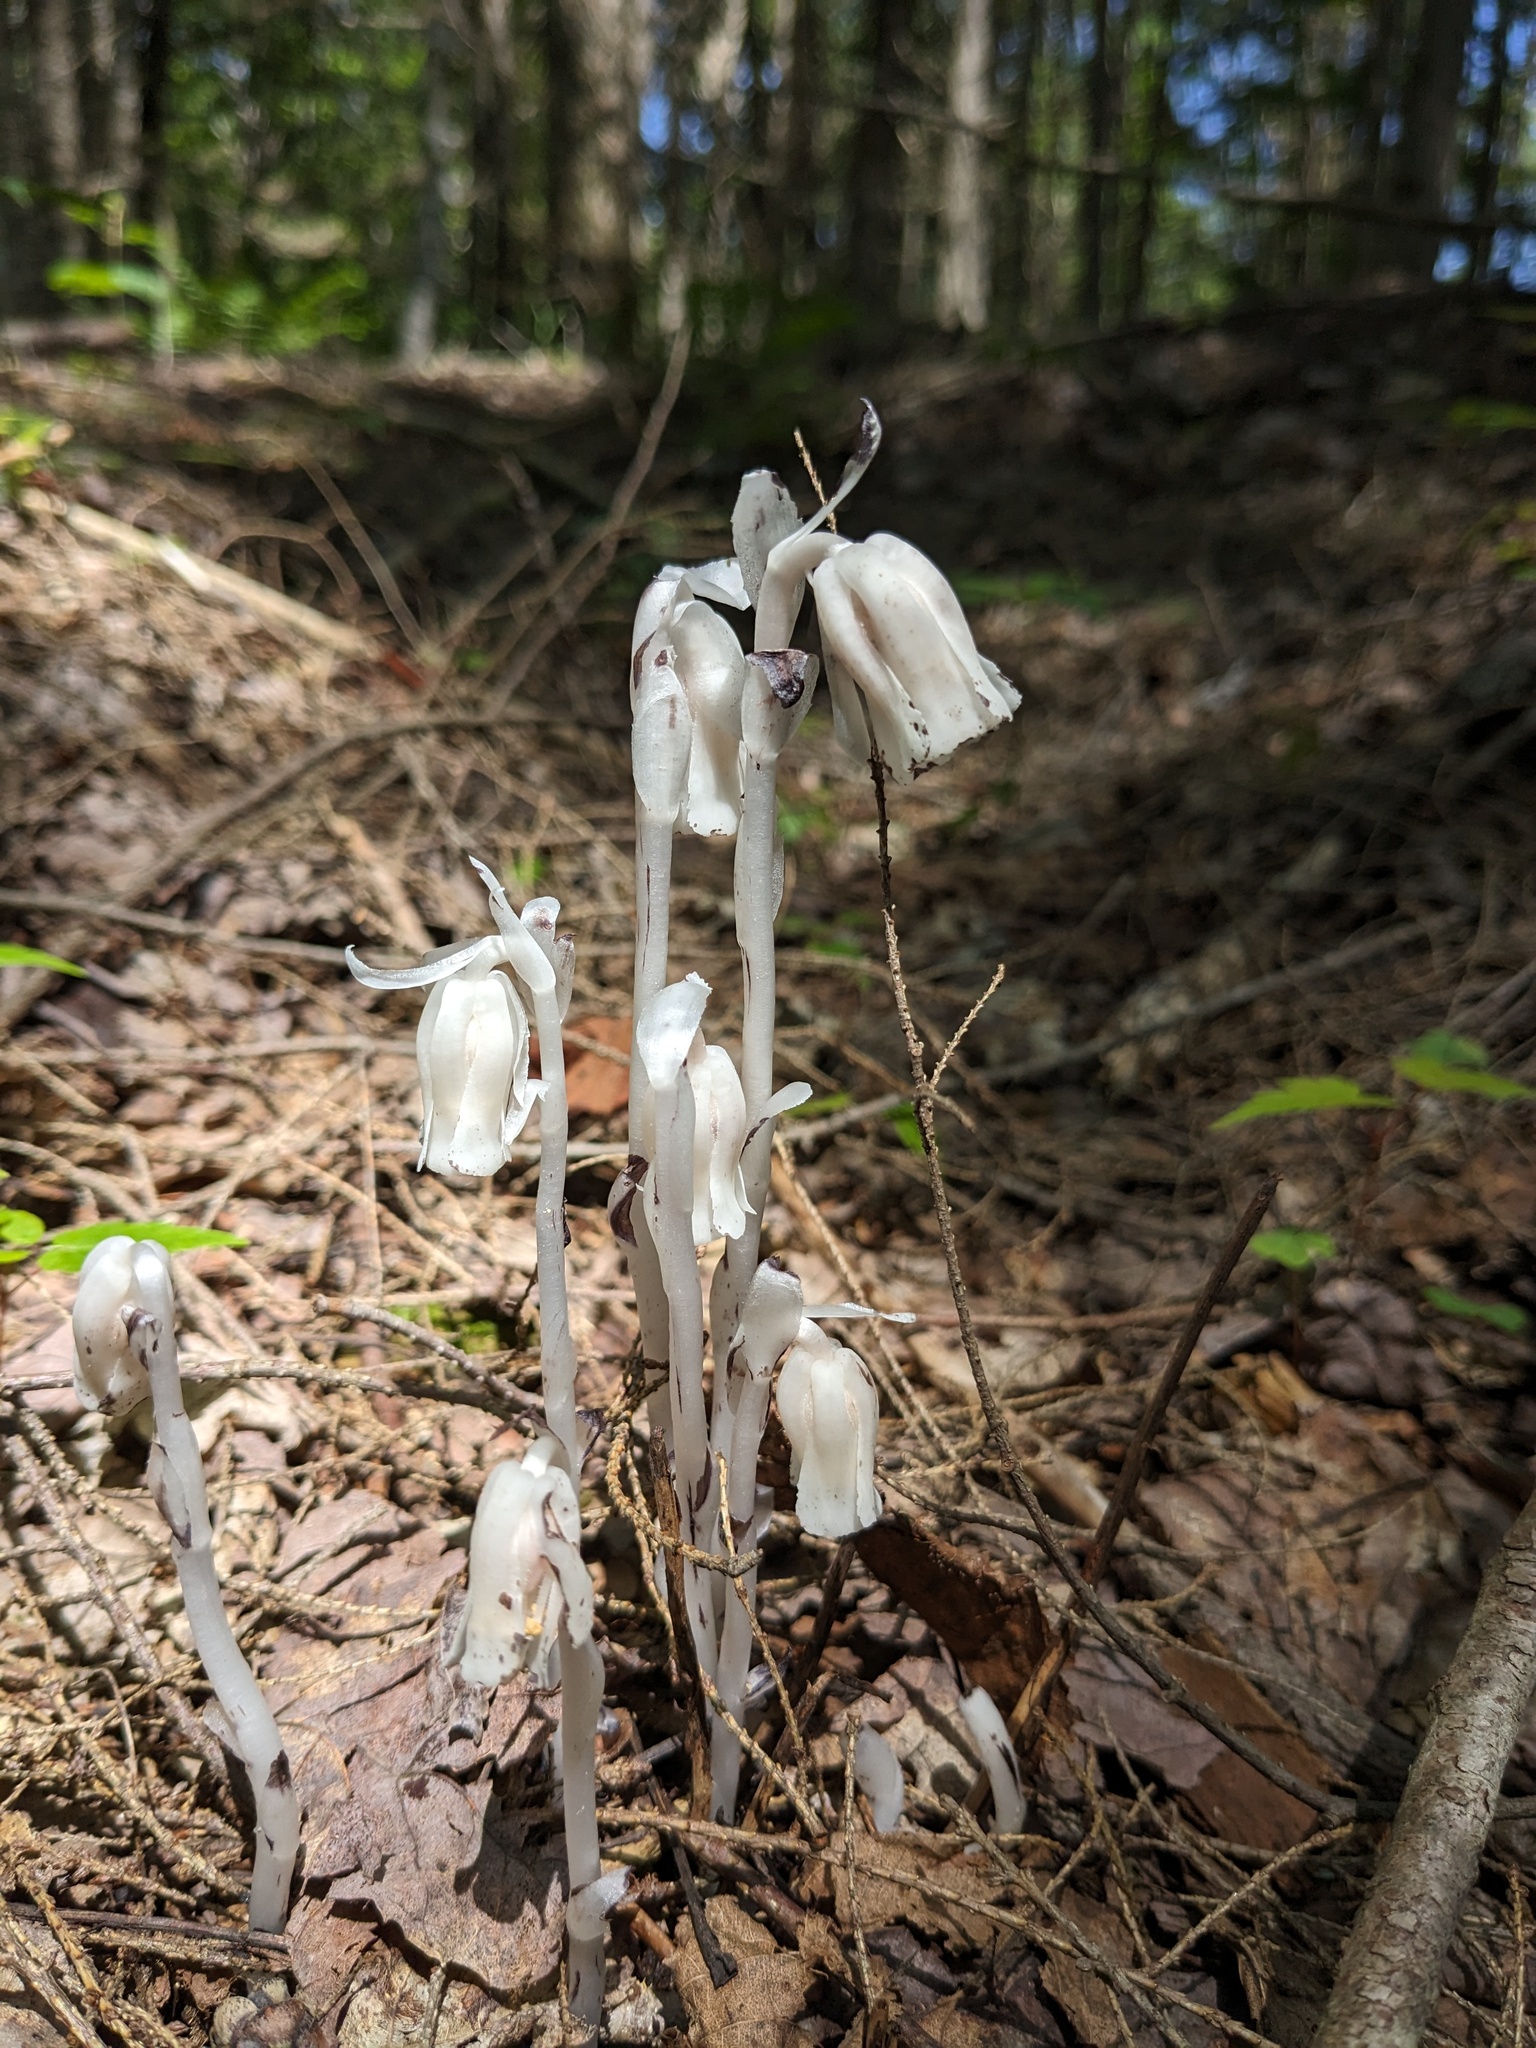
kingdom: Plantae
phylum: Tracheophyta
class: Magnoliopsida
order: Ericales
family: Ericaceae
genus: Monotropa
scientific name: Monotropa uniflora
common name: Convulsion root
